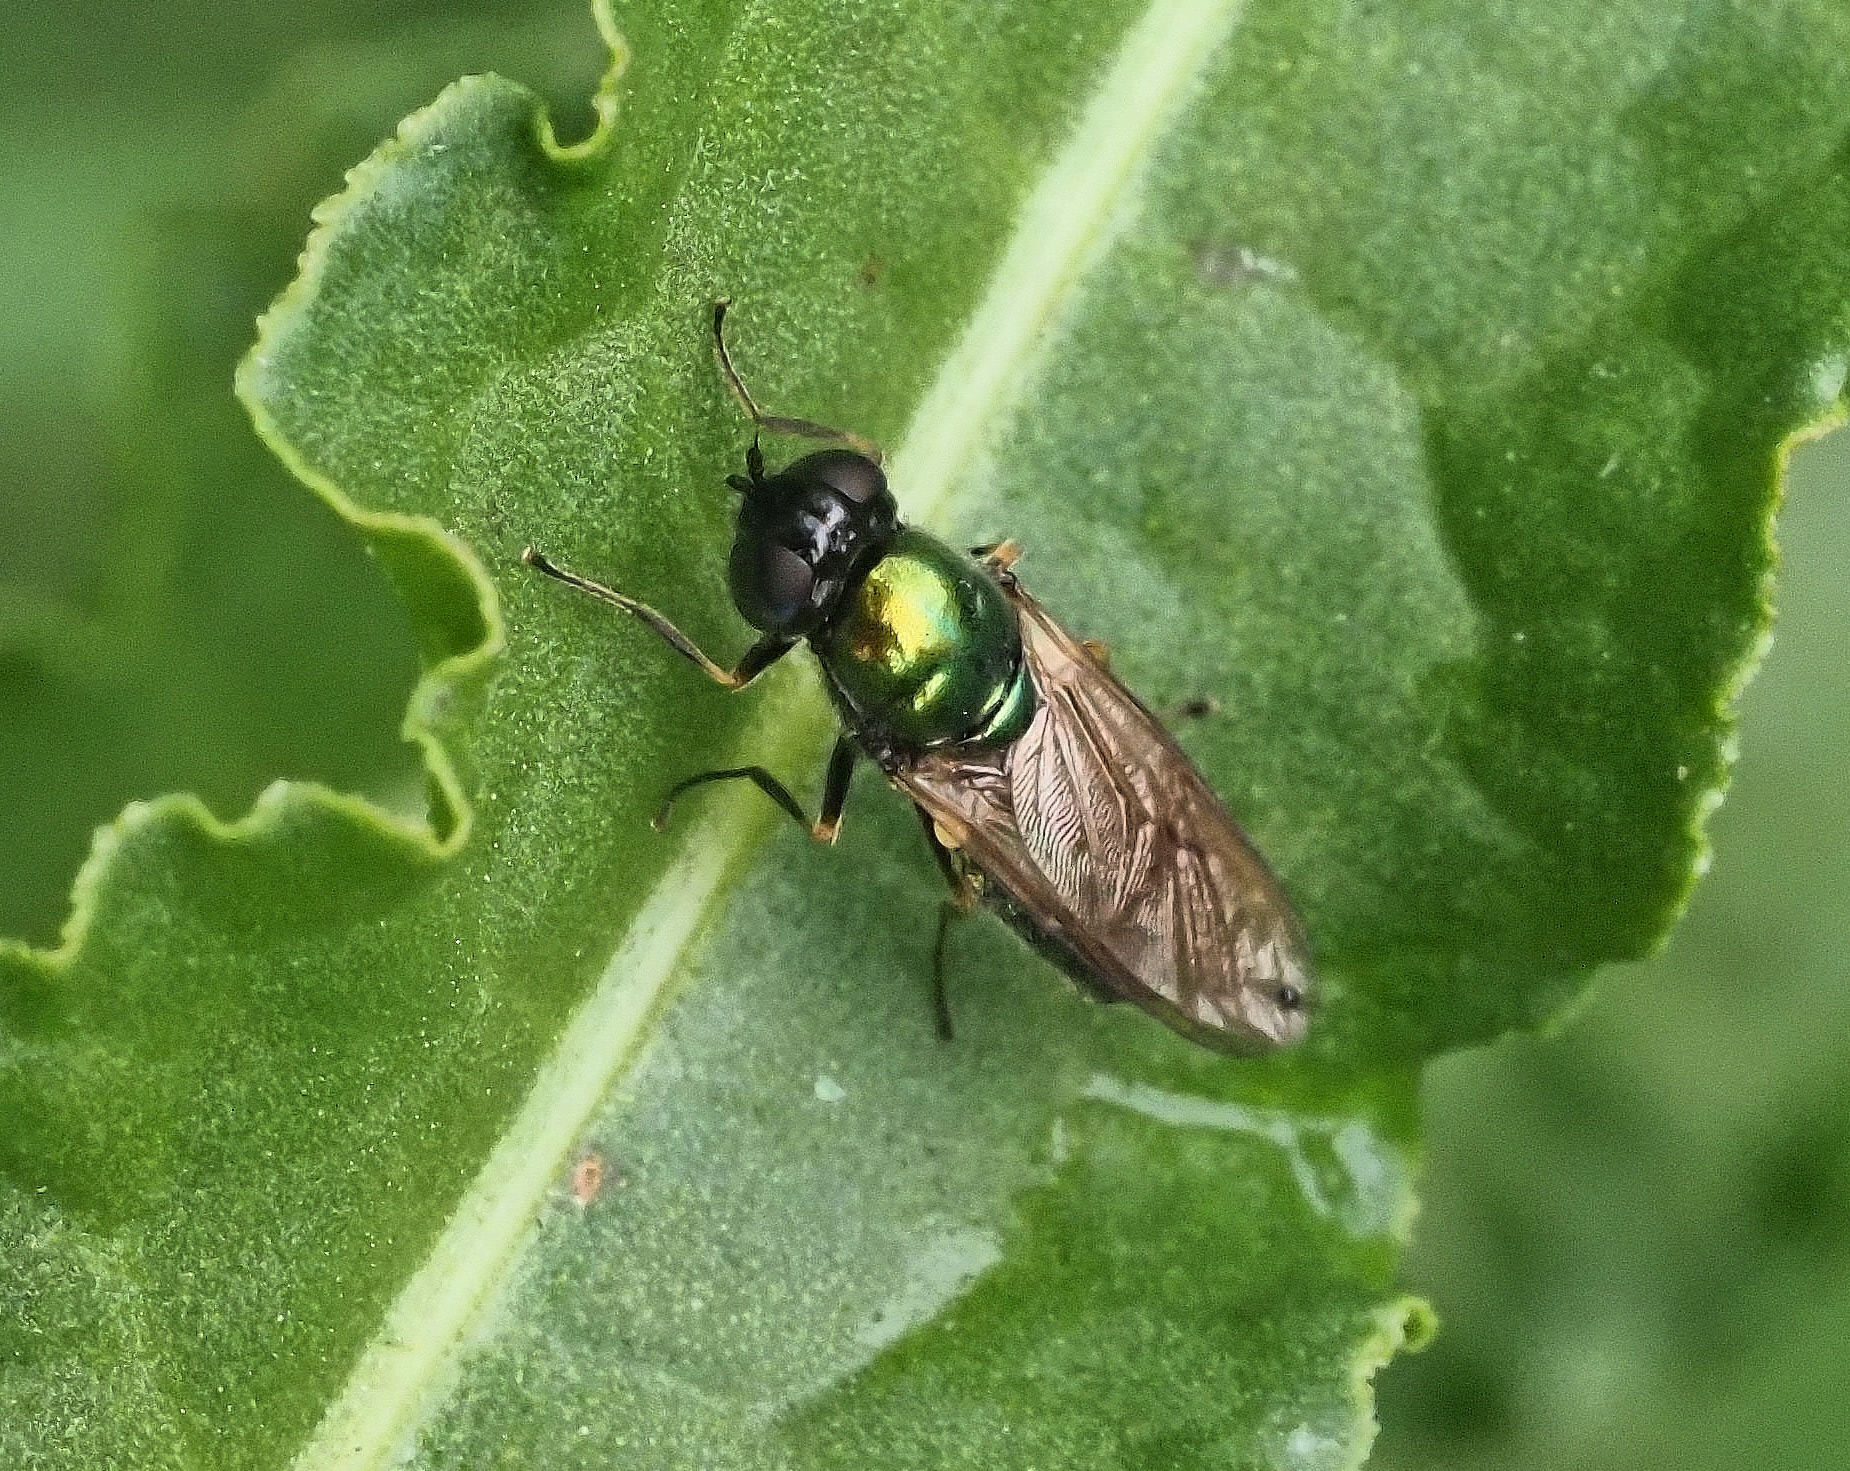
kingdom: Animalia
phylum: Arthropoda
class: Insecta
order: Diptera
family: Stratiomyidae
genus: Chloromyia
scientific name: Chloromyia formosa
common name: Soldier fly
